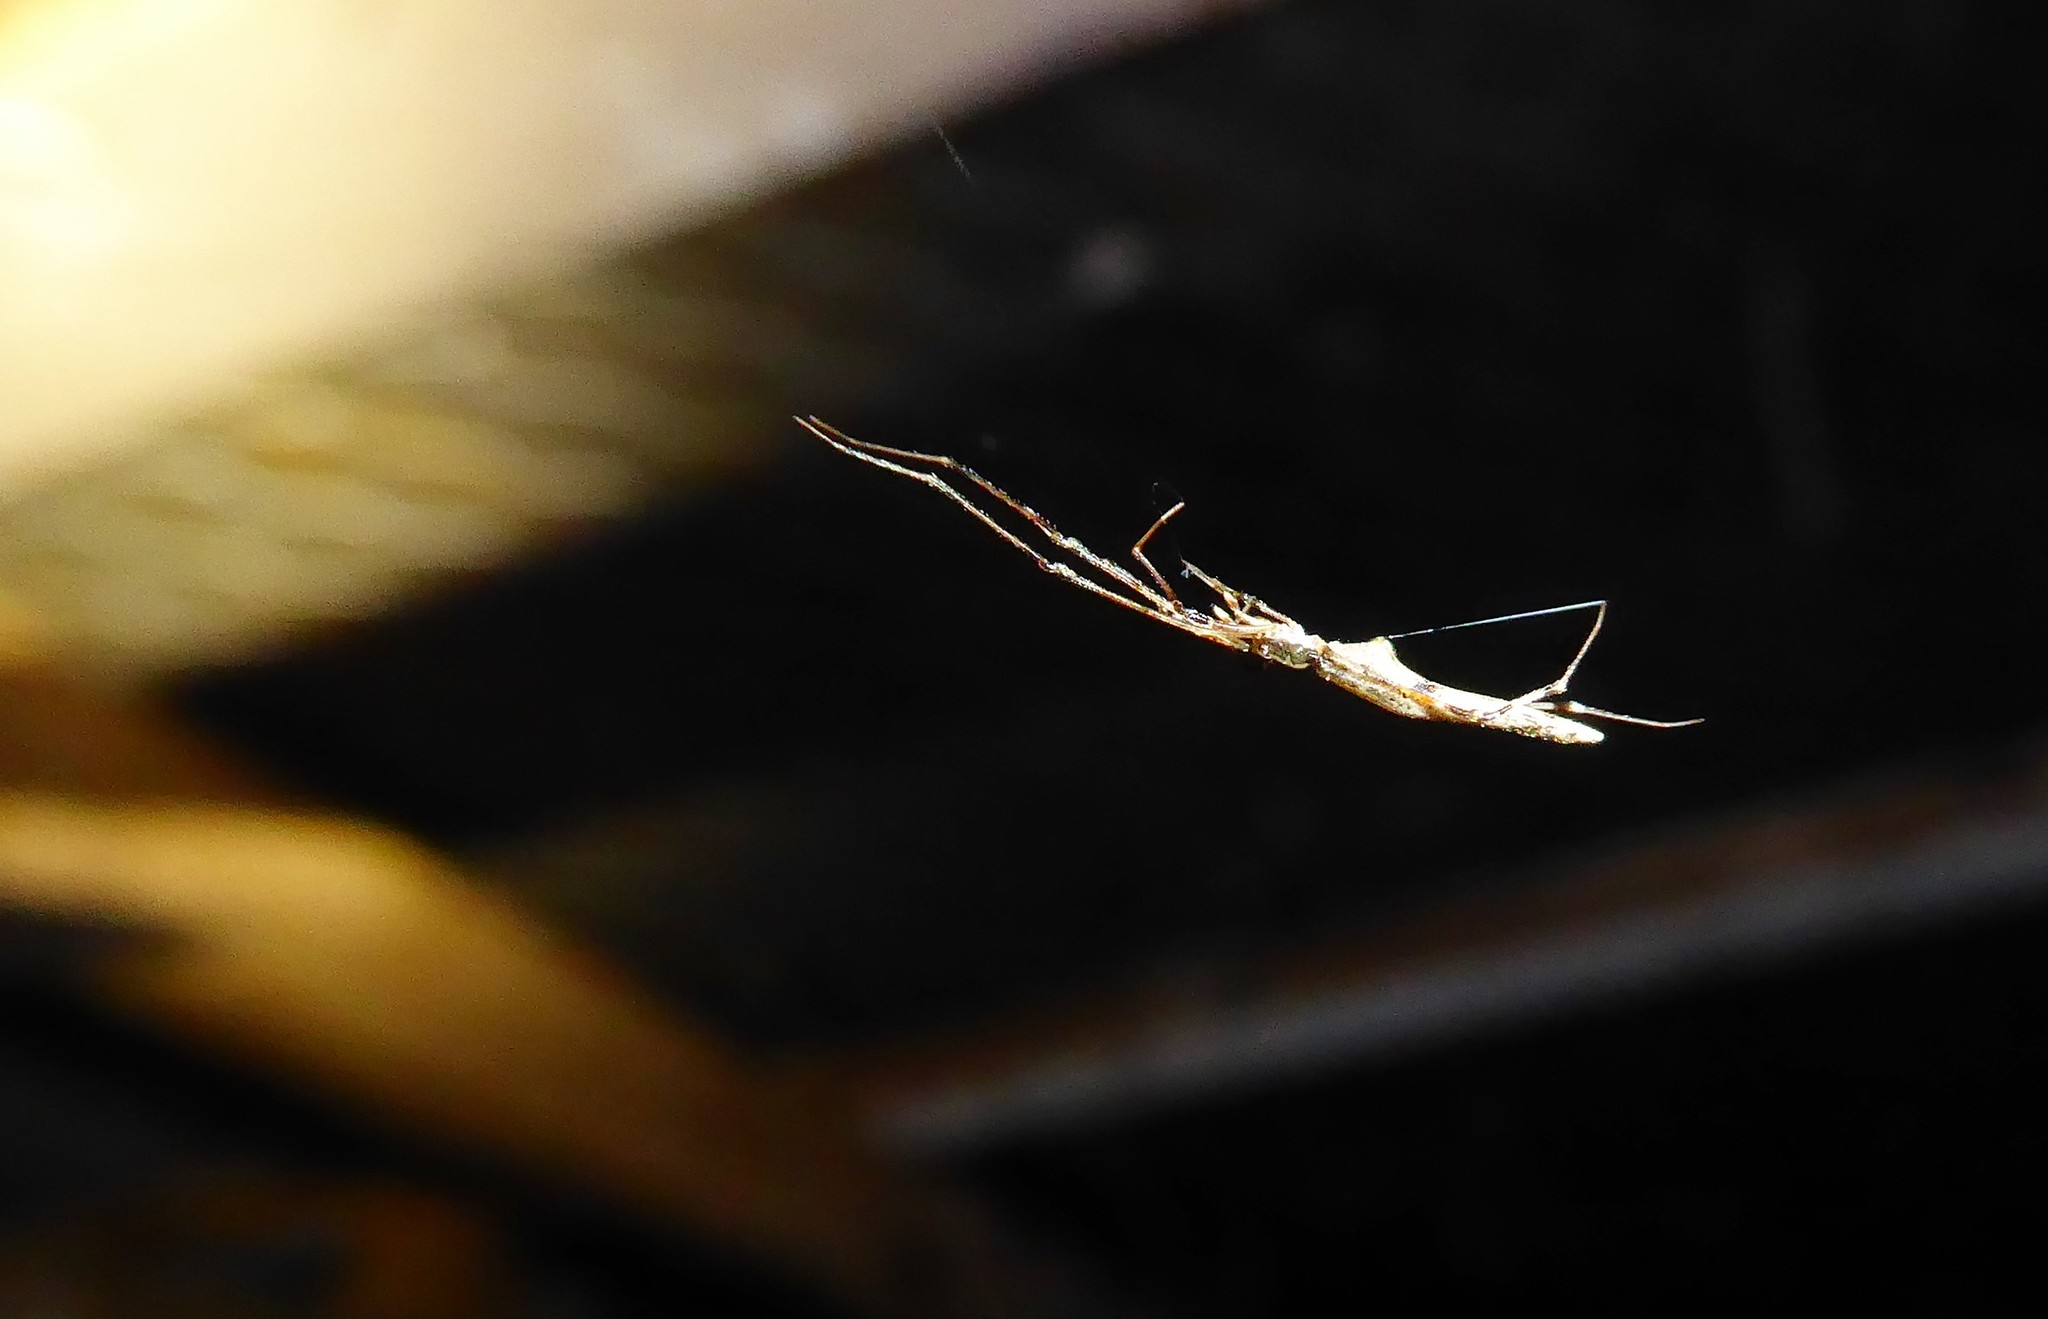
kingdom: Animalia
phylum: Arthropoda
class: Arachnida
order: Araneae
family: Theridiidae
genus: Rhomphaea
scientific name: Rhomphaea urquharti
